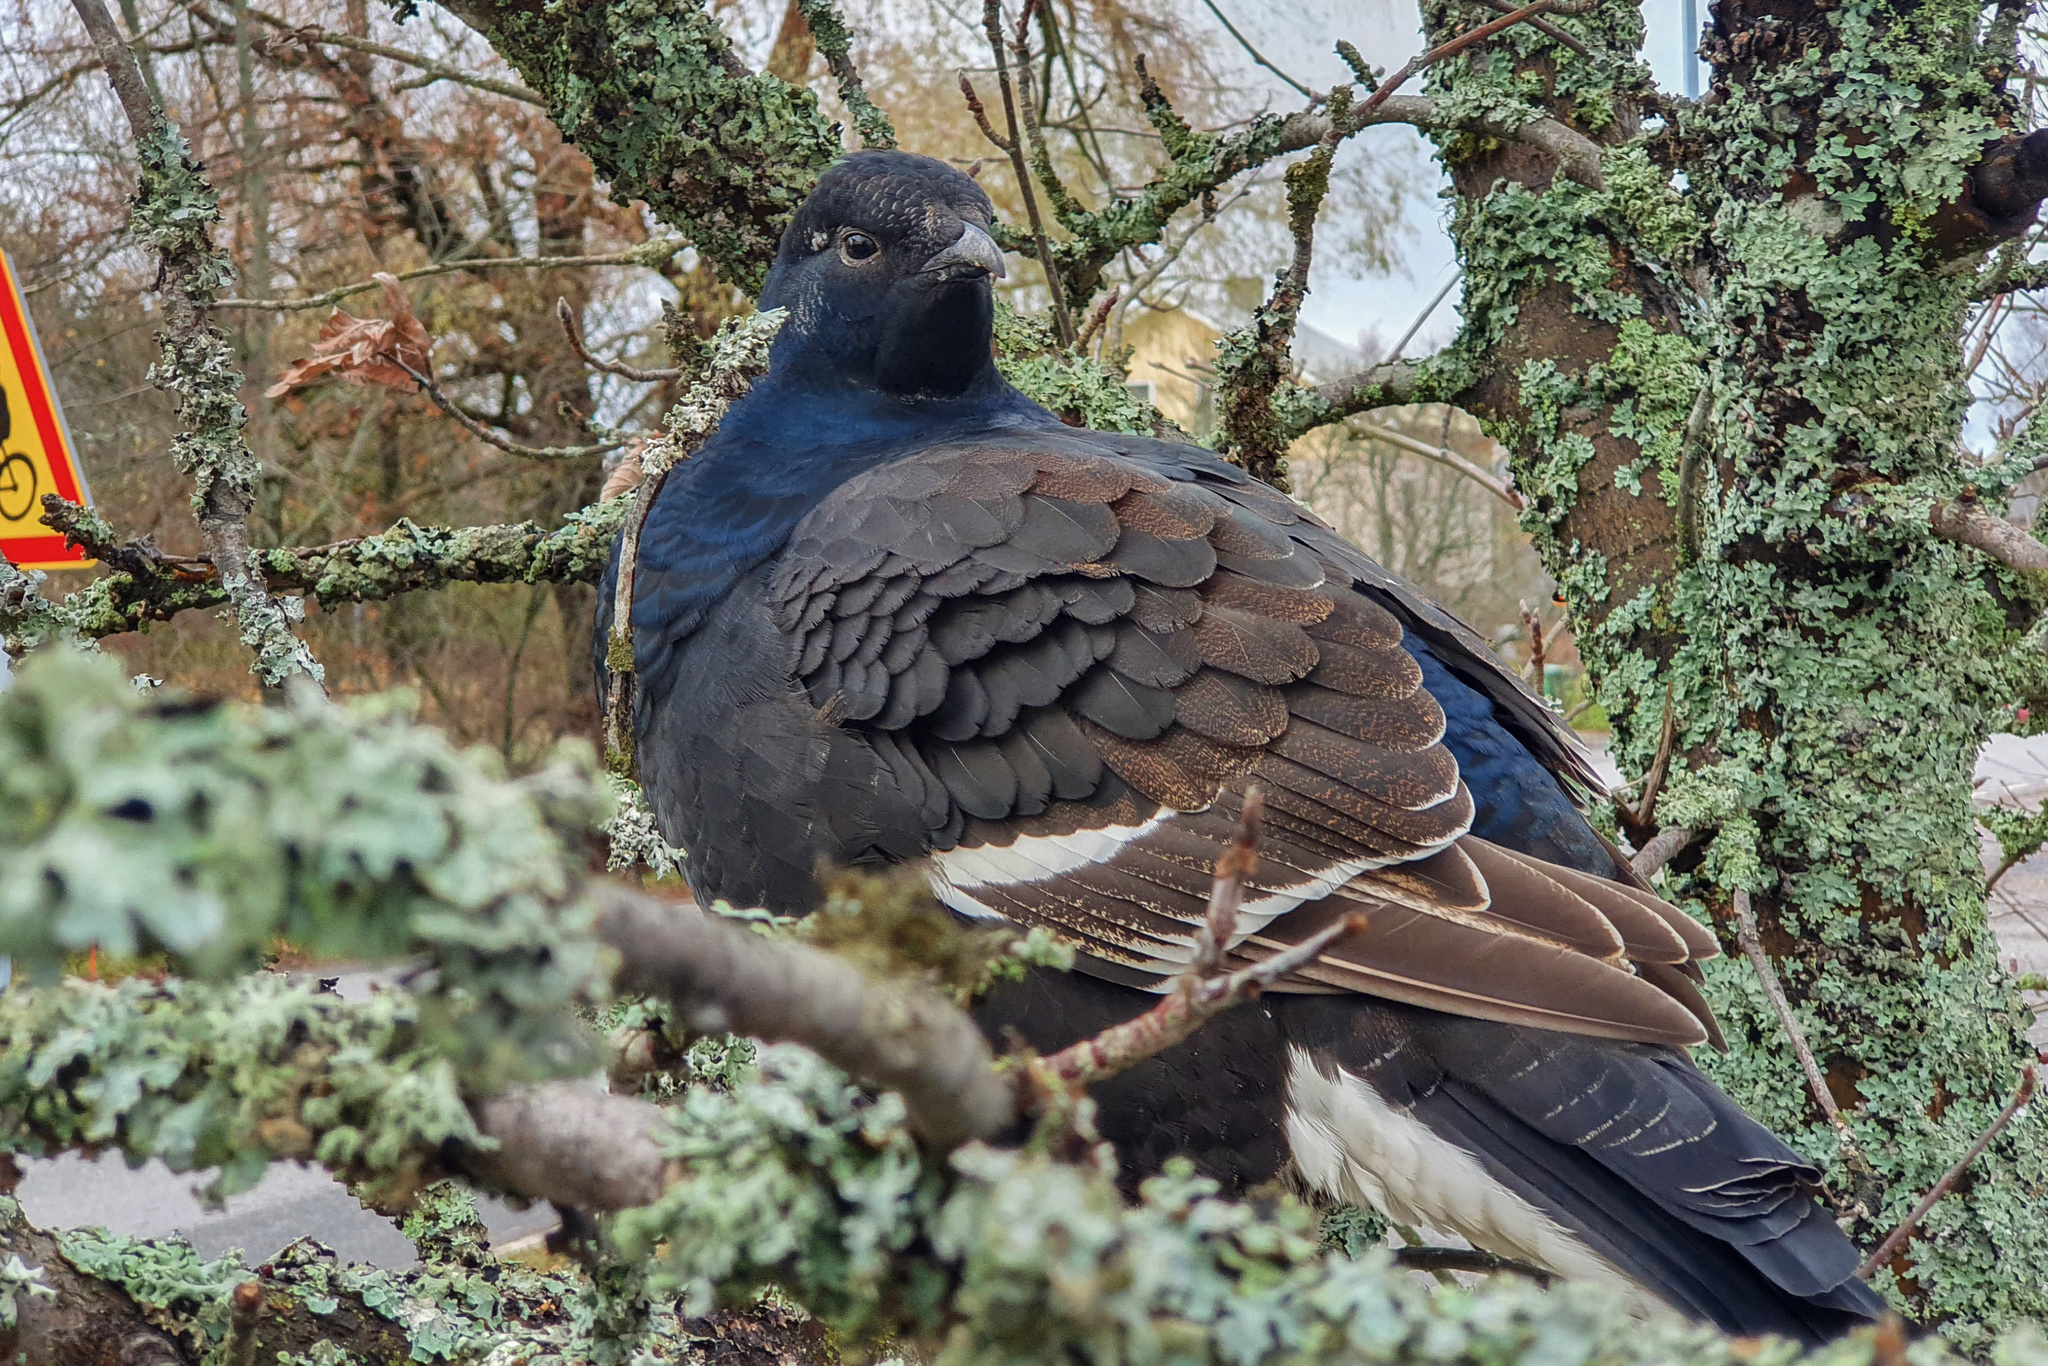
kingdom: Animalia
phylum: Chordata
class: Aves
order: Galliformes
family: Phasianidae
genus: Lyrurus
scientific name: Lyrurus tetrix
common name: Black grouse
